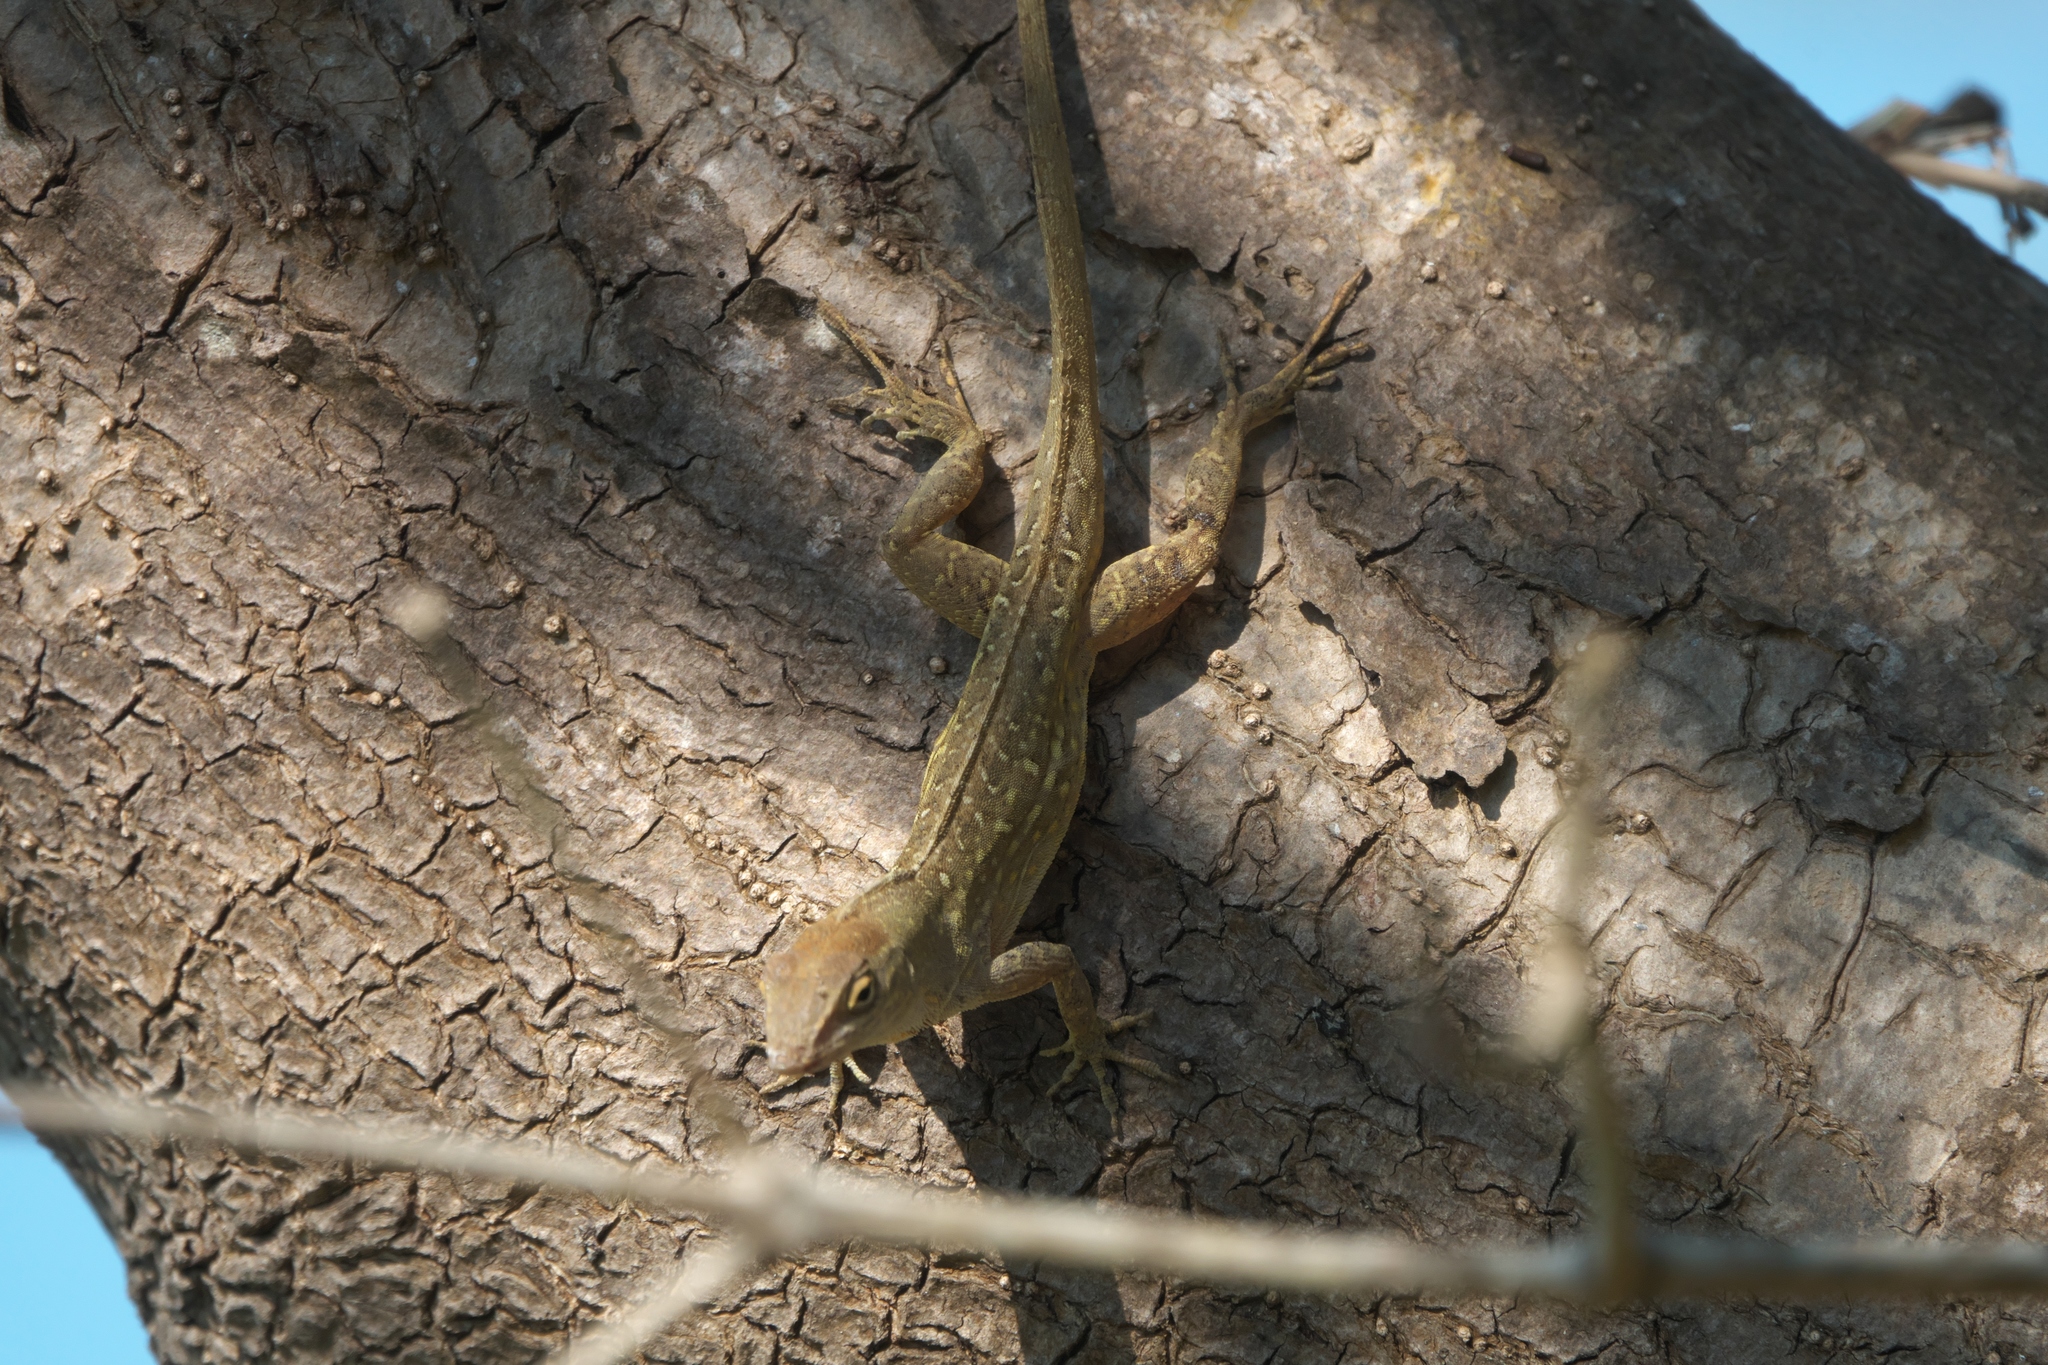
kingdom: Animalia
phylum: Chordata
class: Squamata
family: Dactyloidae
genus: Anolis
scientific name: Anolis sagrei
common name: Brown anole
